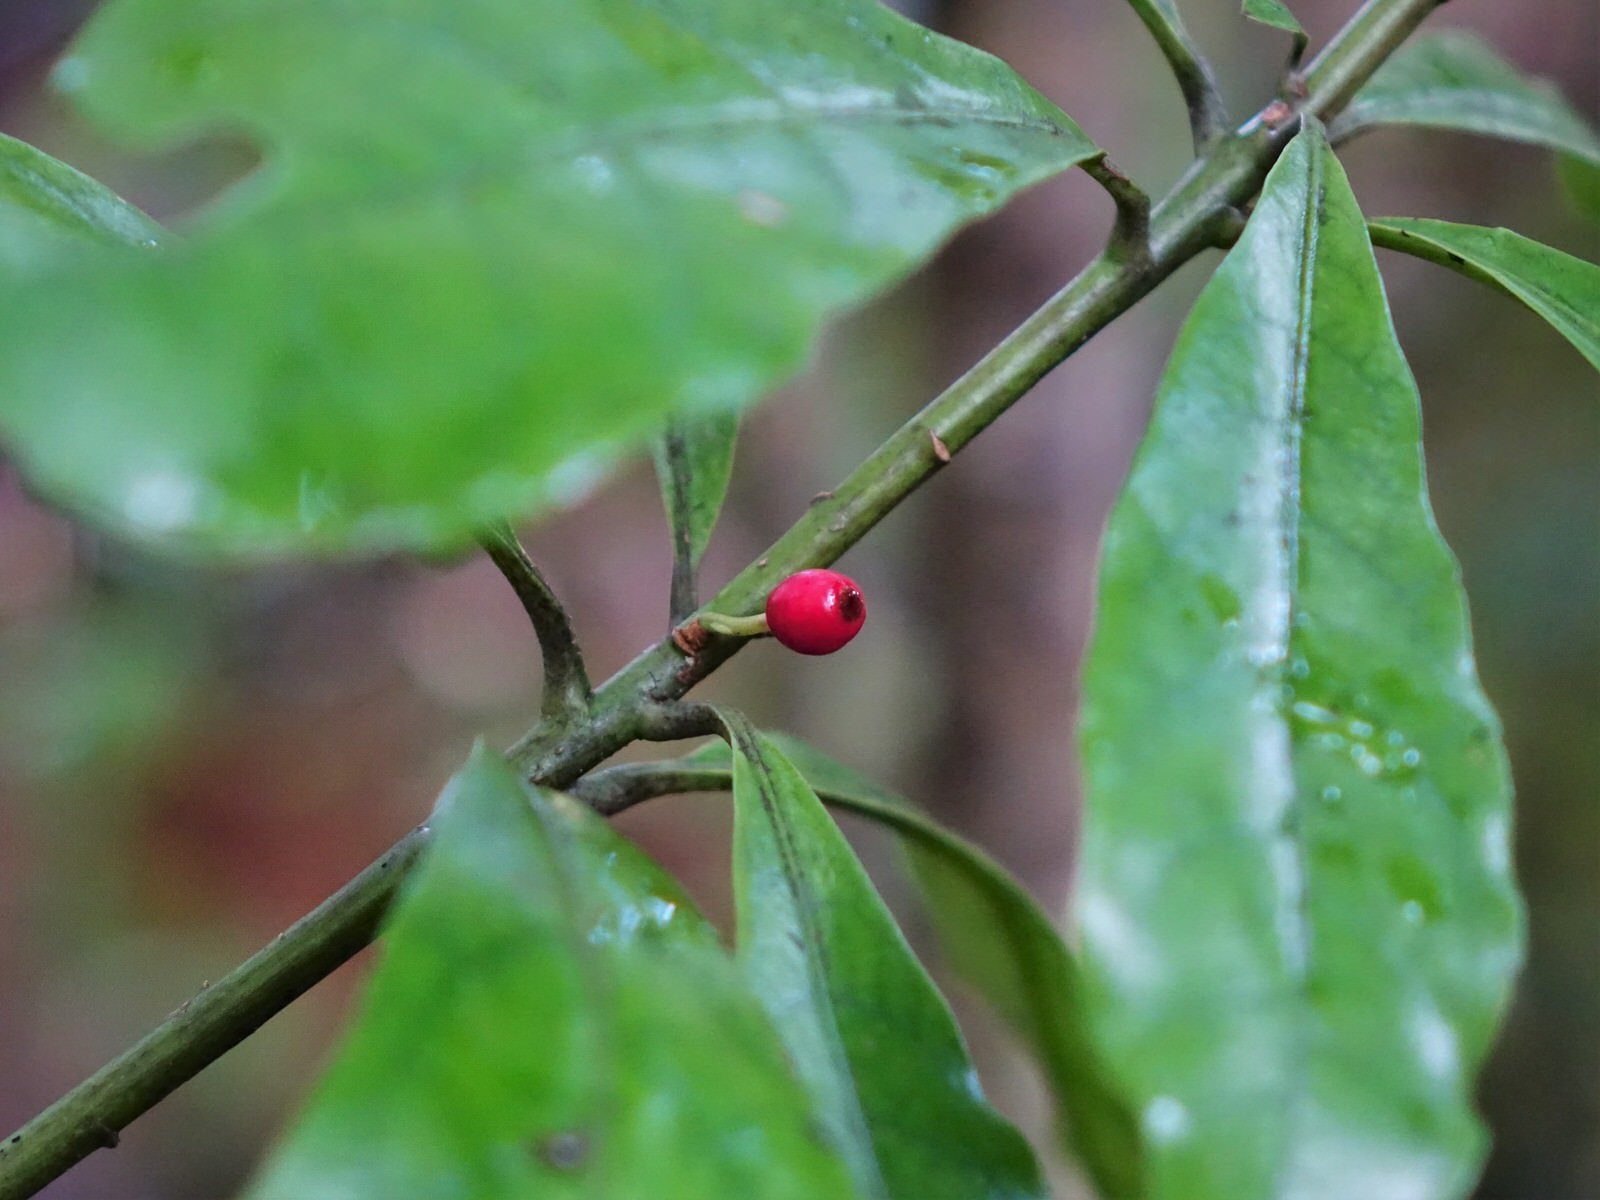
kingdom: Plantae
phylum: Tracheophyta
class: Magnoliopsida
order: Asterales
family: Alseuosmiaceae
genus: Alseuosmia
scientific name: Alseuosmia macrophylla
